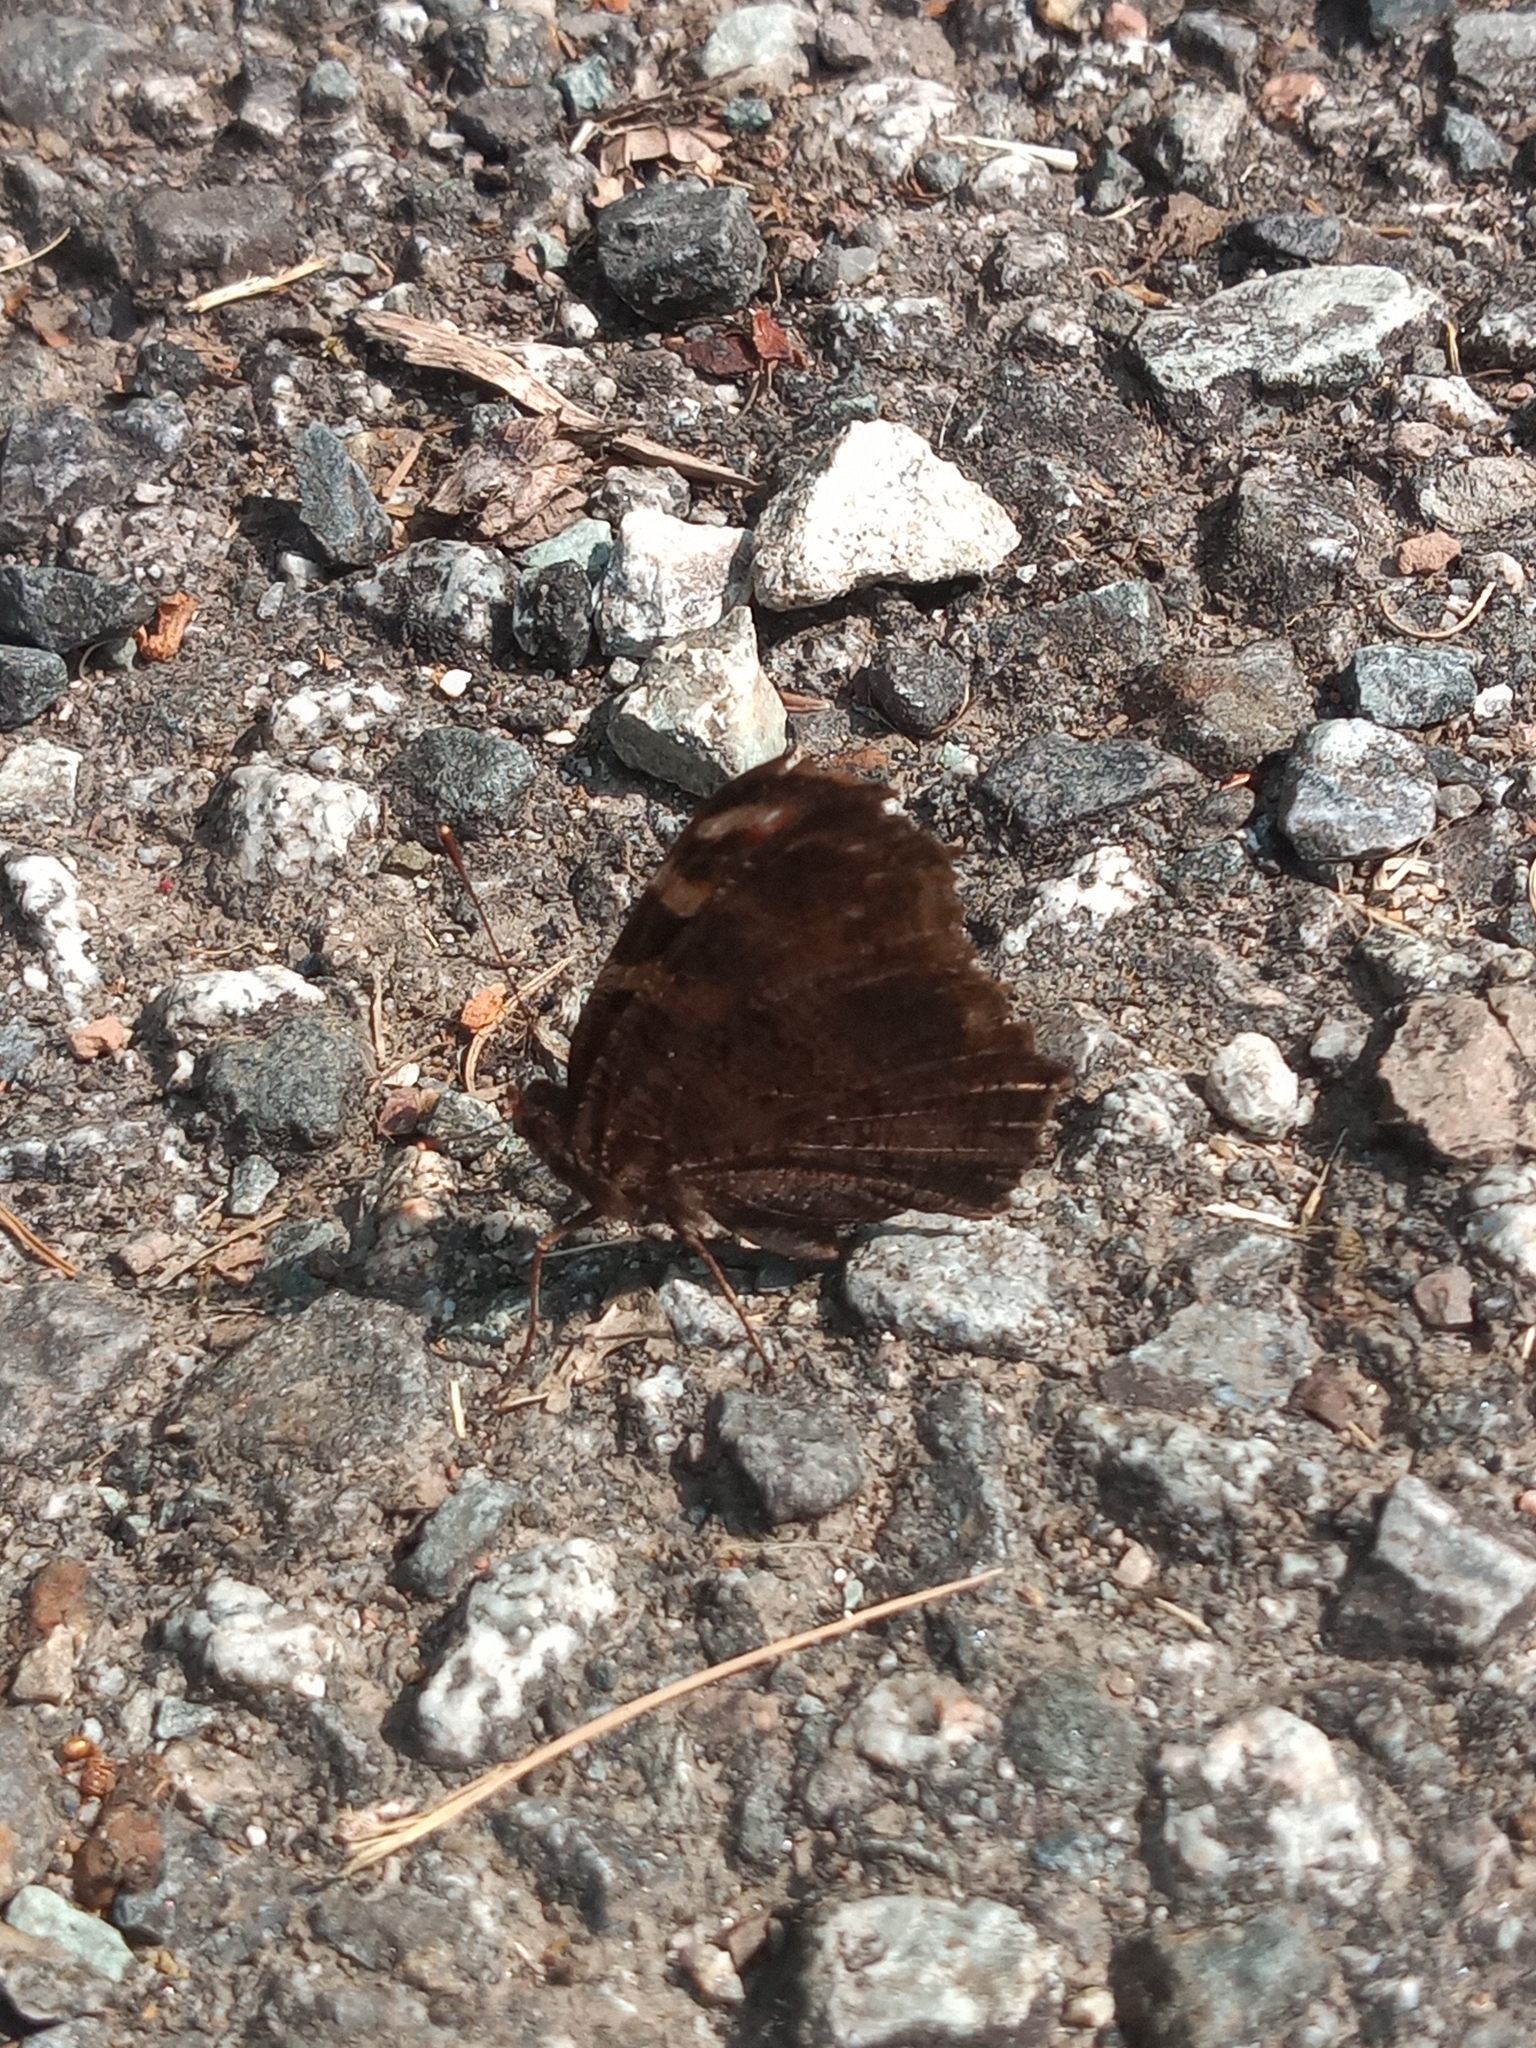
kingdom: Animalia
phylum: Arthropoda
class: Insecta
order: Lepidoptera
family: Nymphalidae
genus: Aglais
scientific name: Aglais io
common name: Peacock
